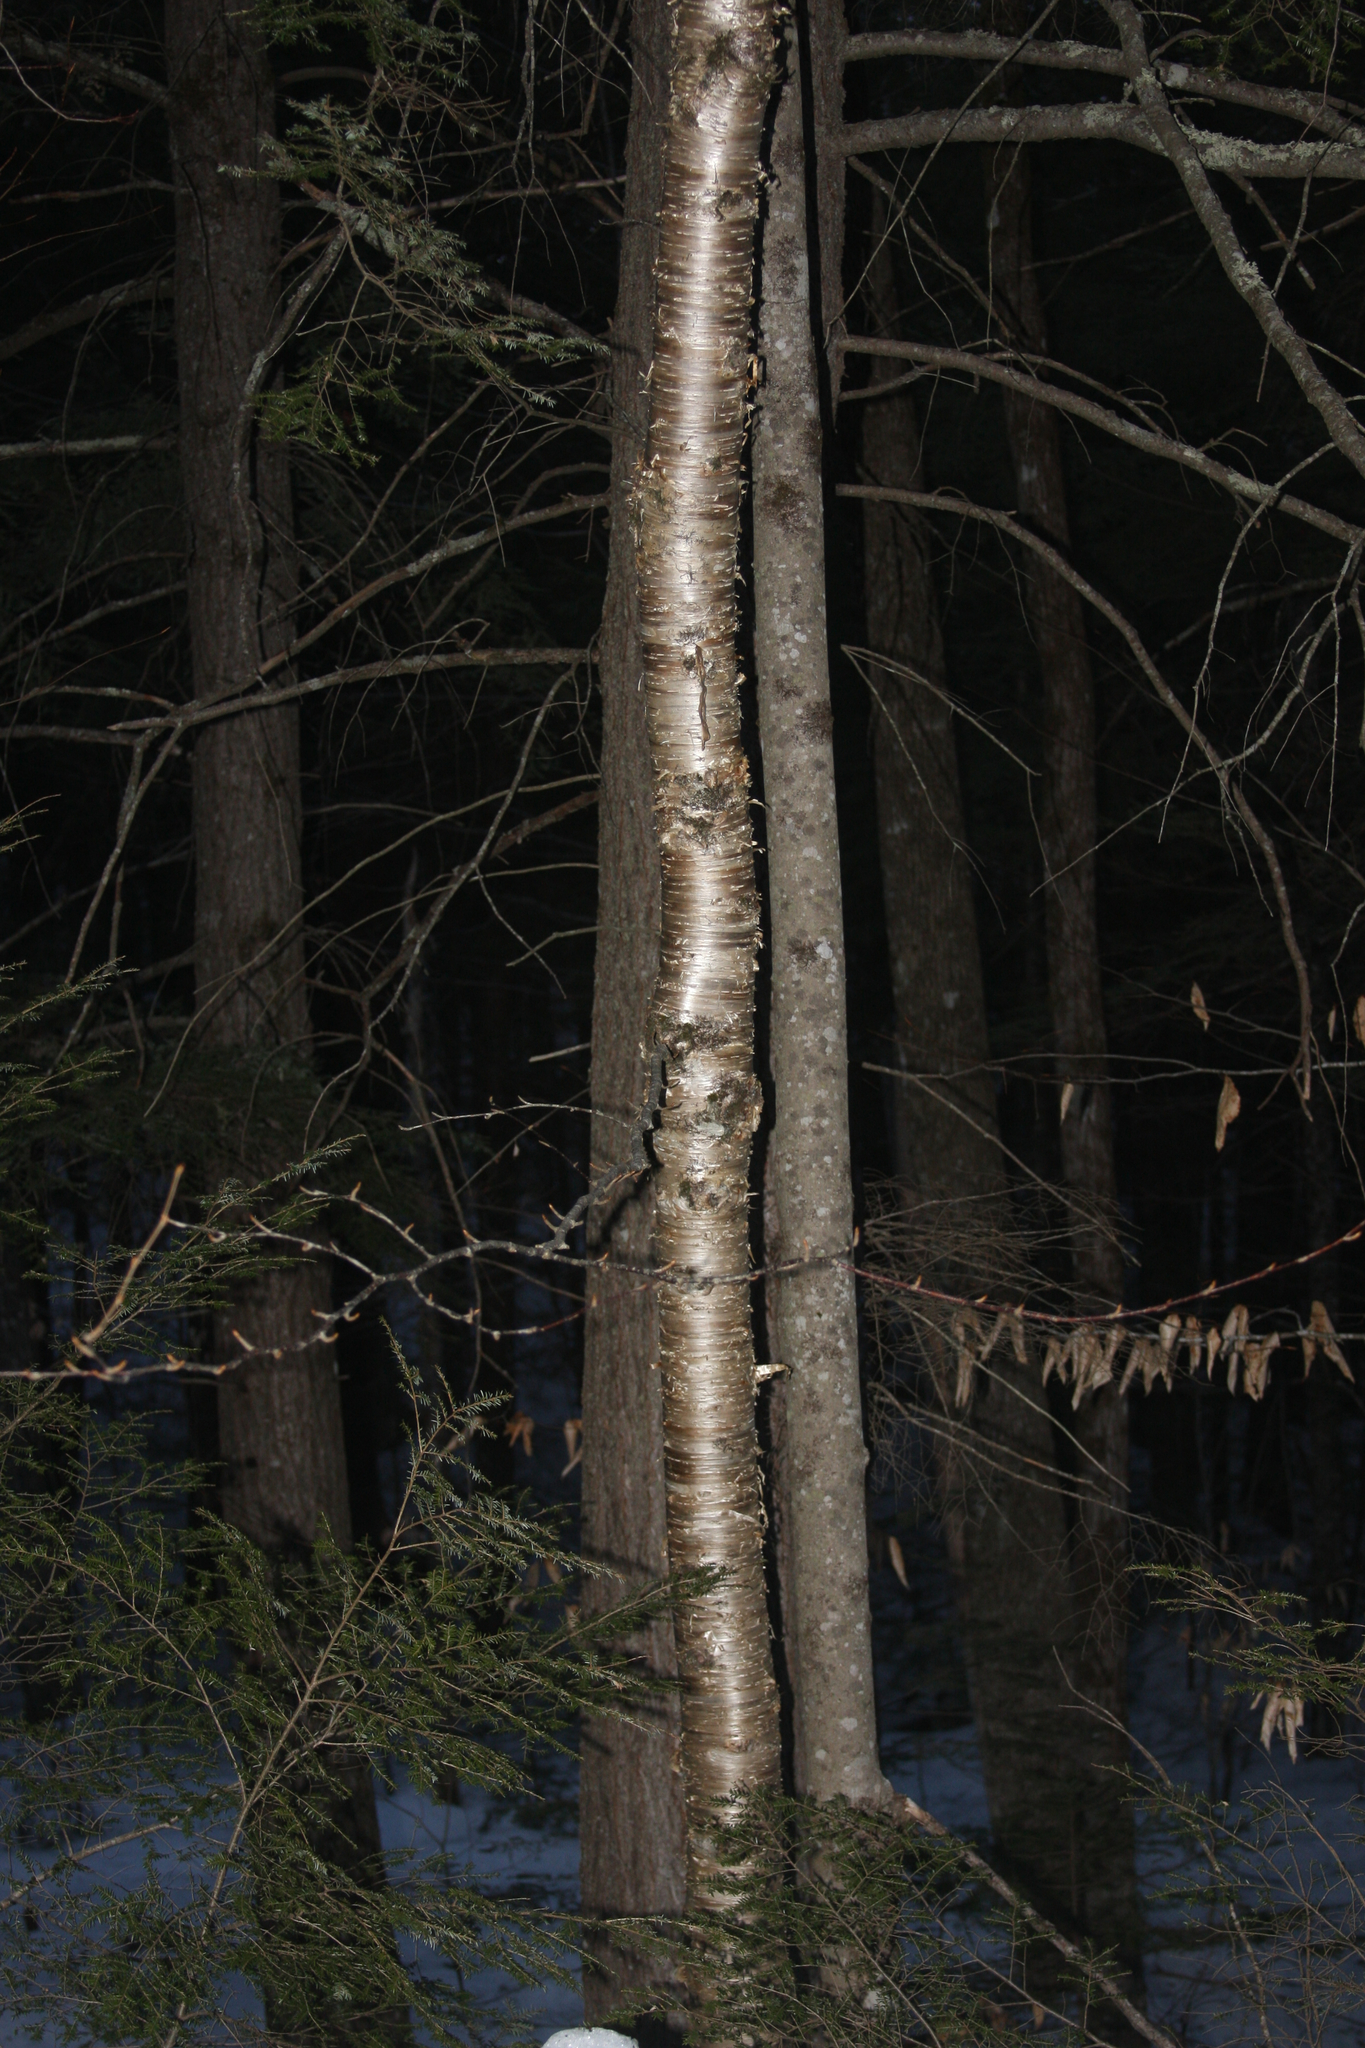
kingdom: Plantae
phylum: Tracheophyta
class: Magnoliopsida
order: Fagales
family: Betulaceae
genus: Betula
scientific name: Betula alleghaniensis
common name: Yellow birch
